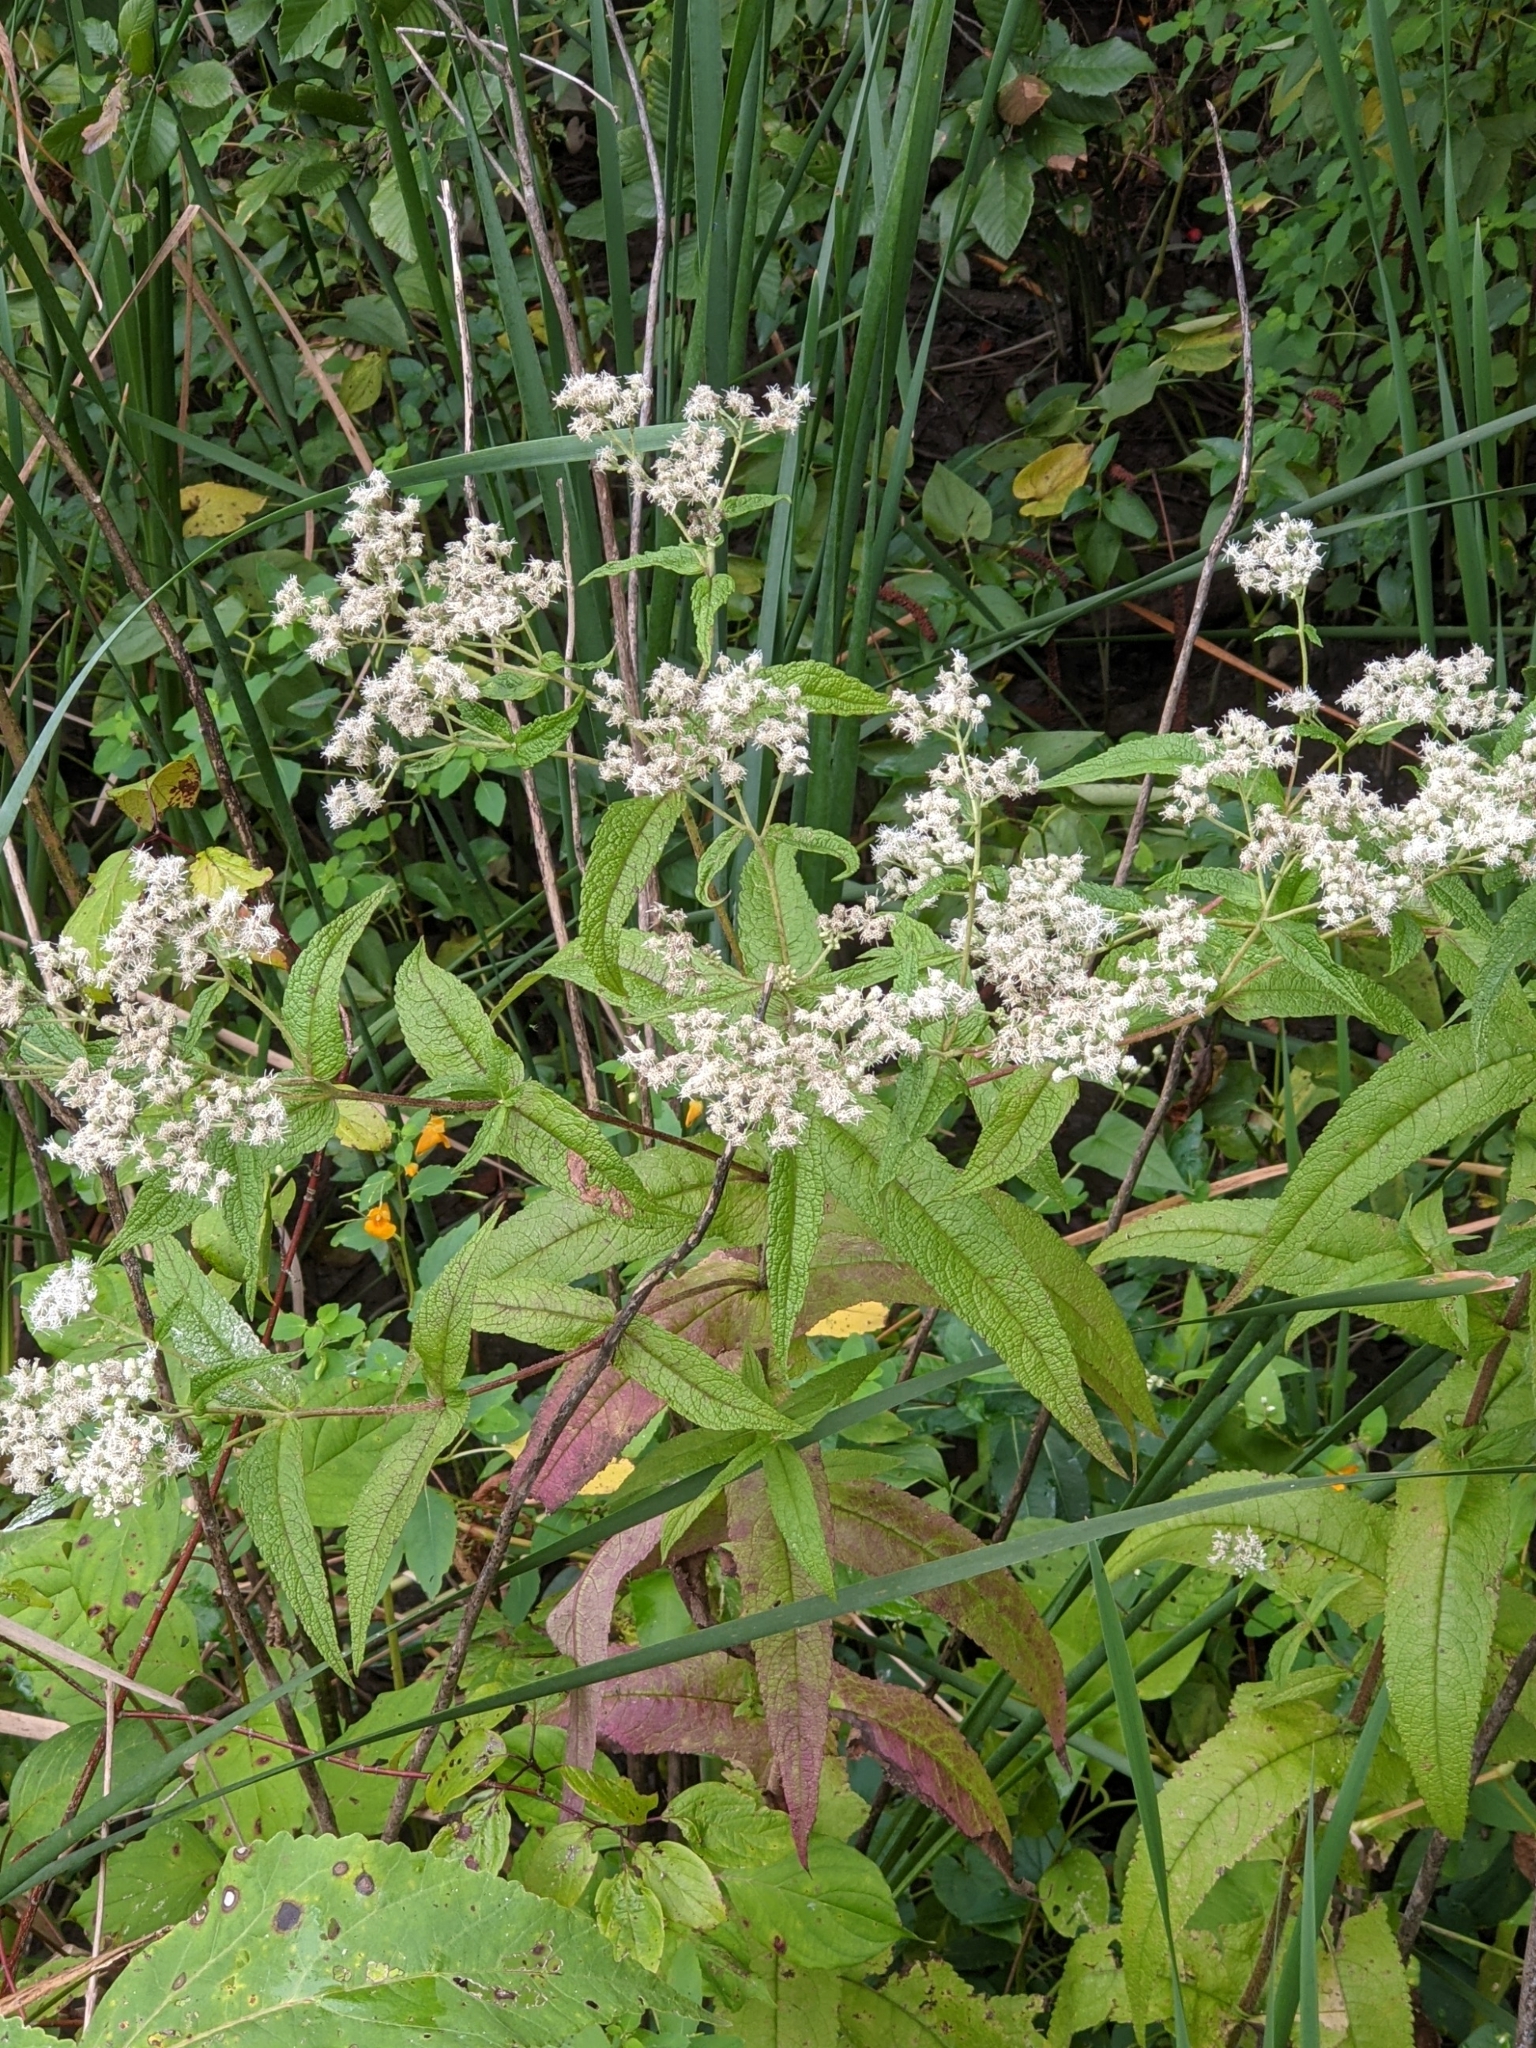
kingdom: Plantae
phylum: Tracheophyta
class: Magnoliopsida
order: Asterales
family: Asteraceae
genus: Eupatorium
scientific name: Eupatorium perfoliatum
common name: Boneset
